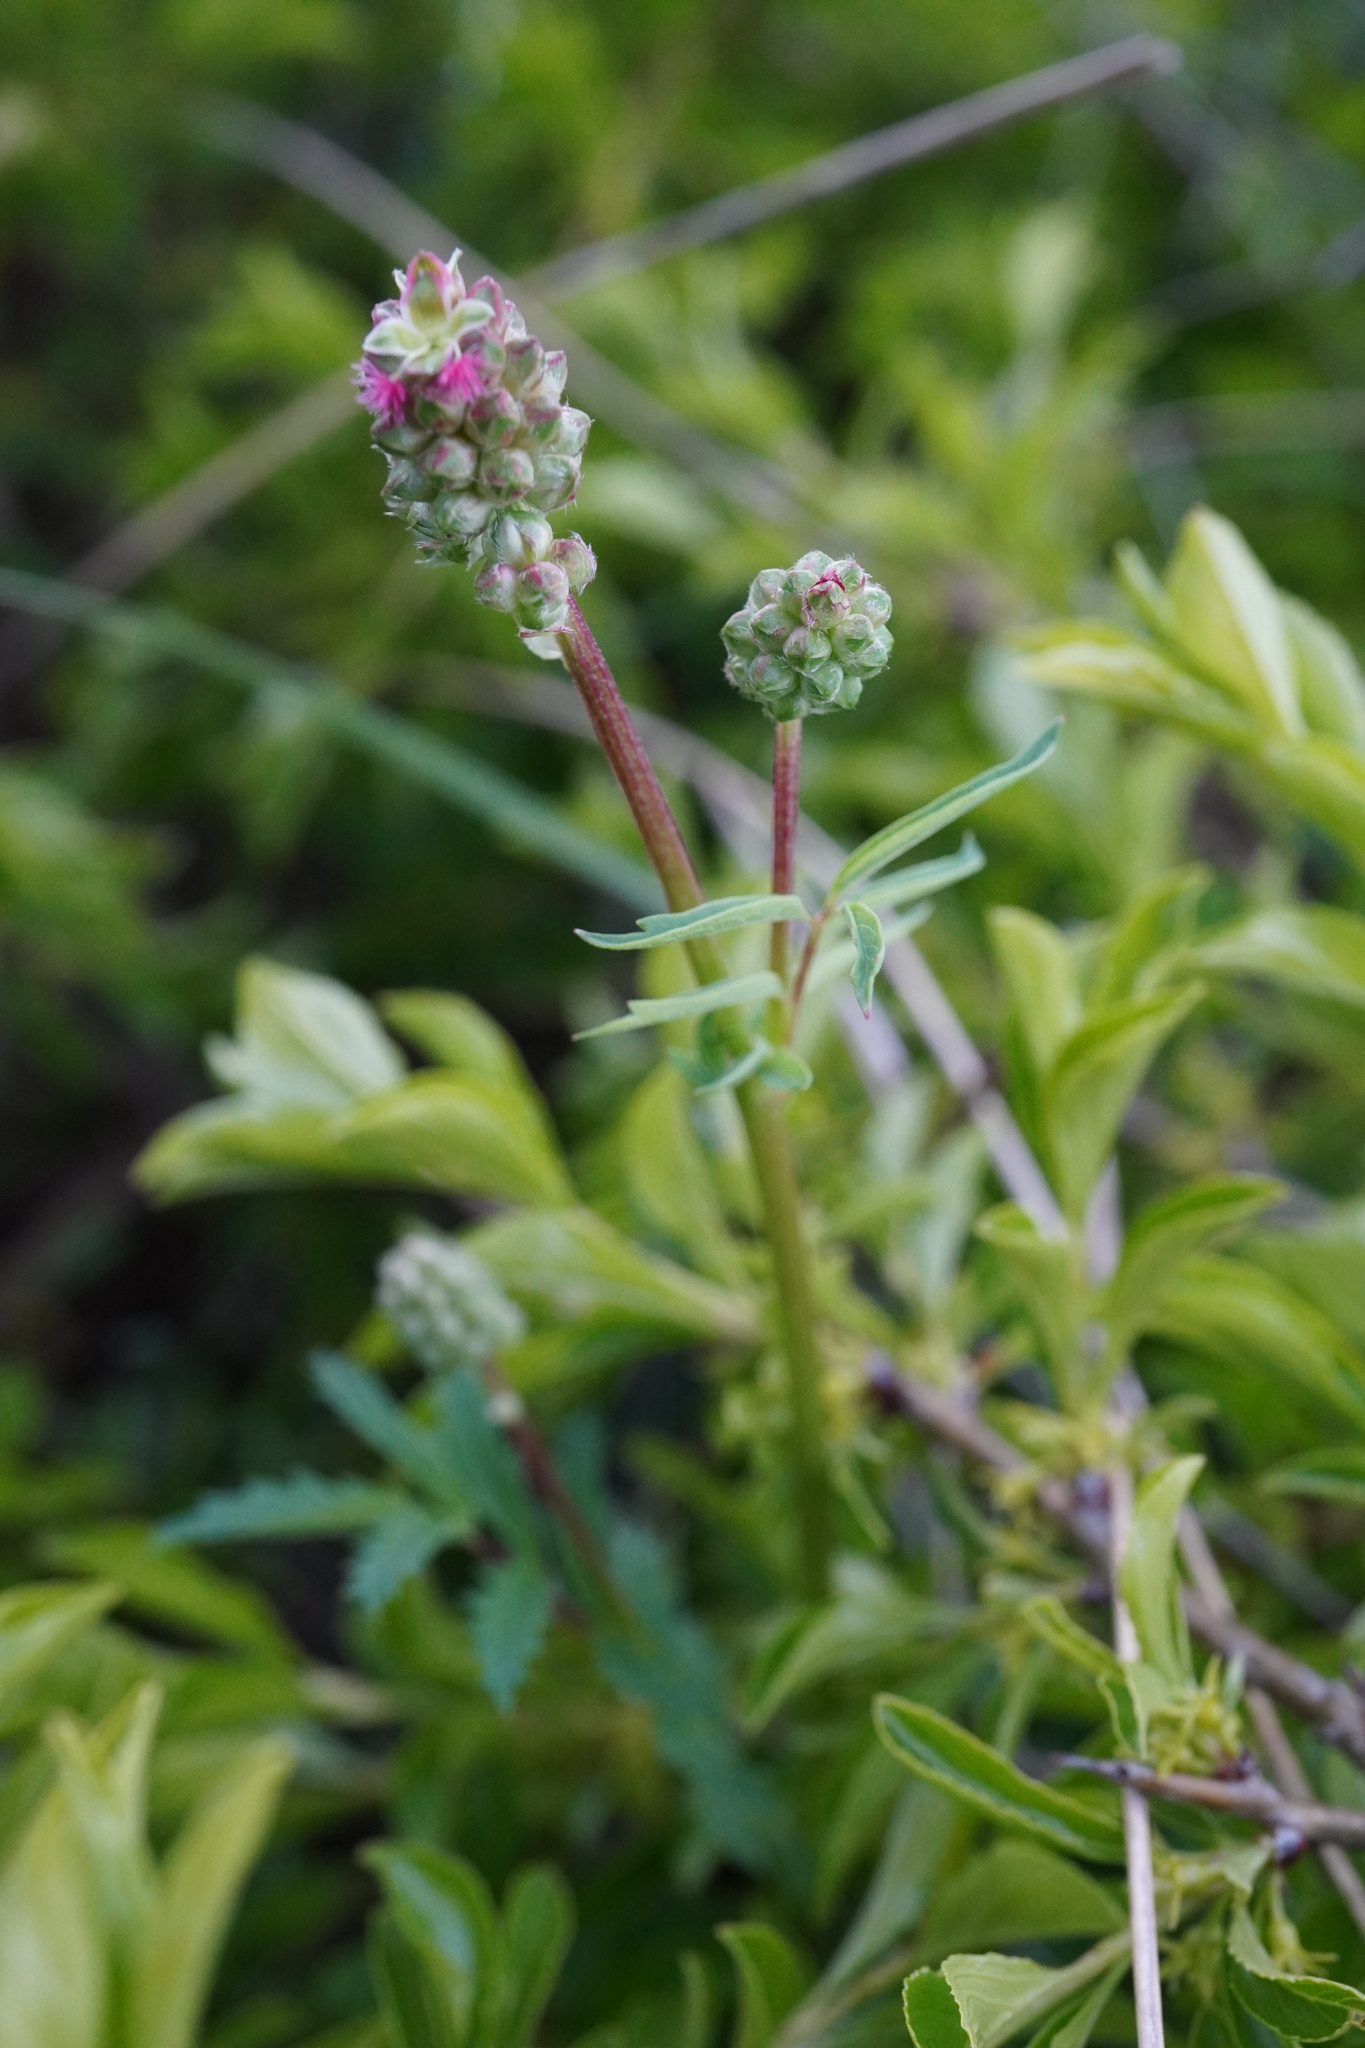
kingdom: Plantae
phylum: Tracheophyta
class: Magnoliopsida
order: Rosales
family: Rosaceae
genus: Poterium
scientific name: Poterium sanguisorba
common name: Salad burnet
